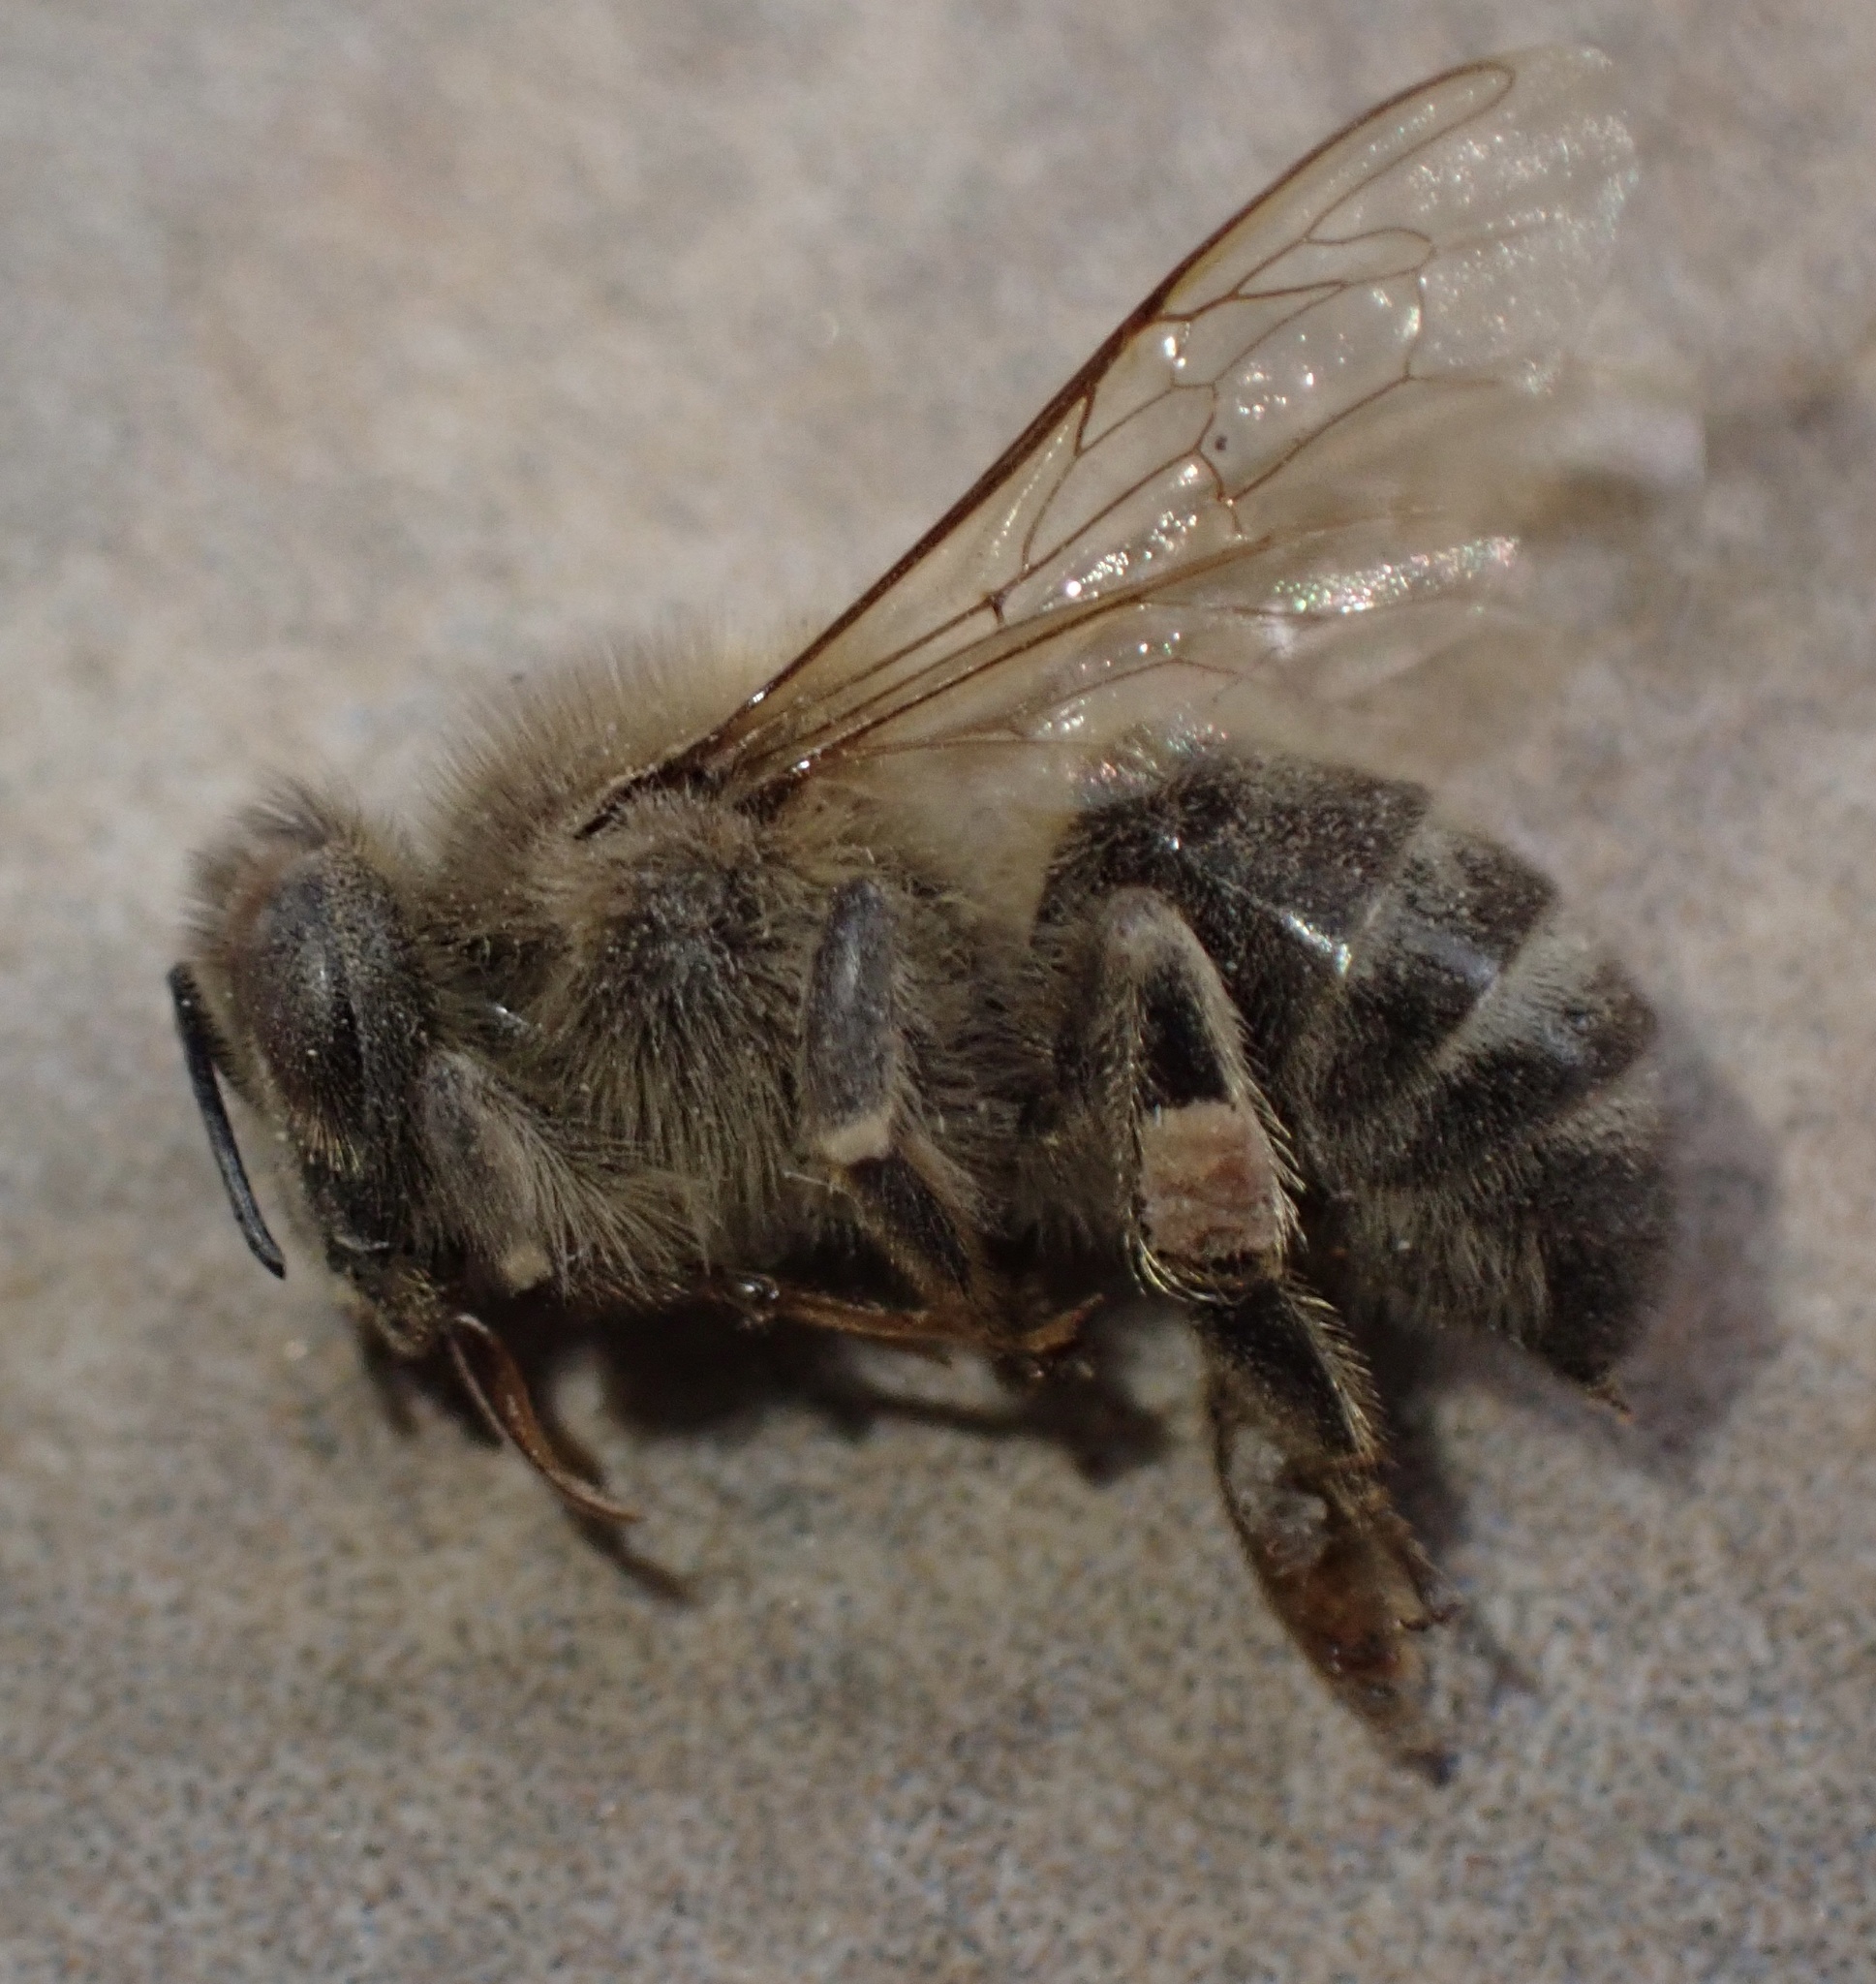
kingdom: Animalia
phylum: Arthropoda
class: Insecta
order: Hymenoptera
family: Apidae
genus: Apis
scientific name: Apis mellifera
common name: Honey bee
